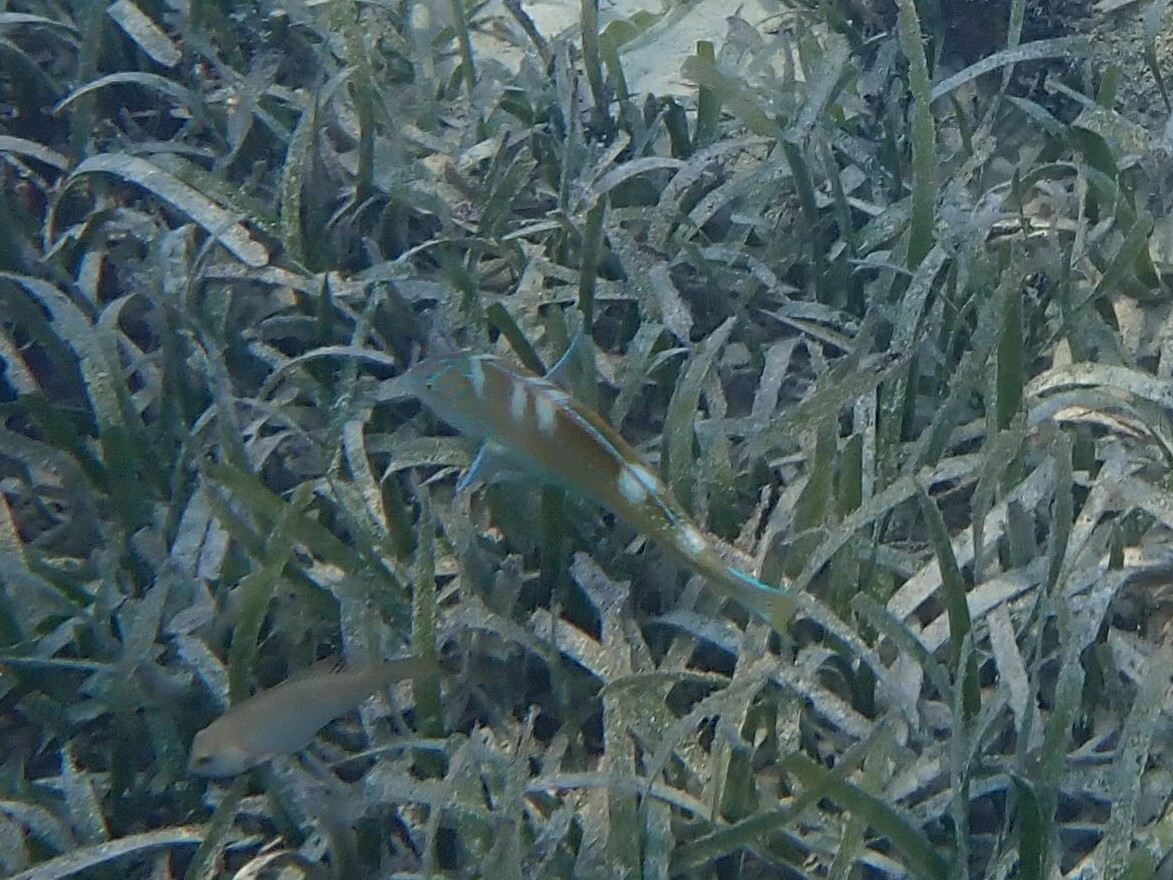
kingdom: Animalia
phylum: Chordata
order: Perciformes
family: Labridae
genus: Halichoeres
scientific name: Halichoeres radiatus
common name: Puddingwife
